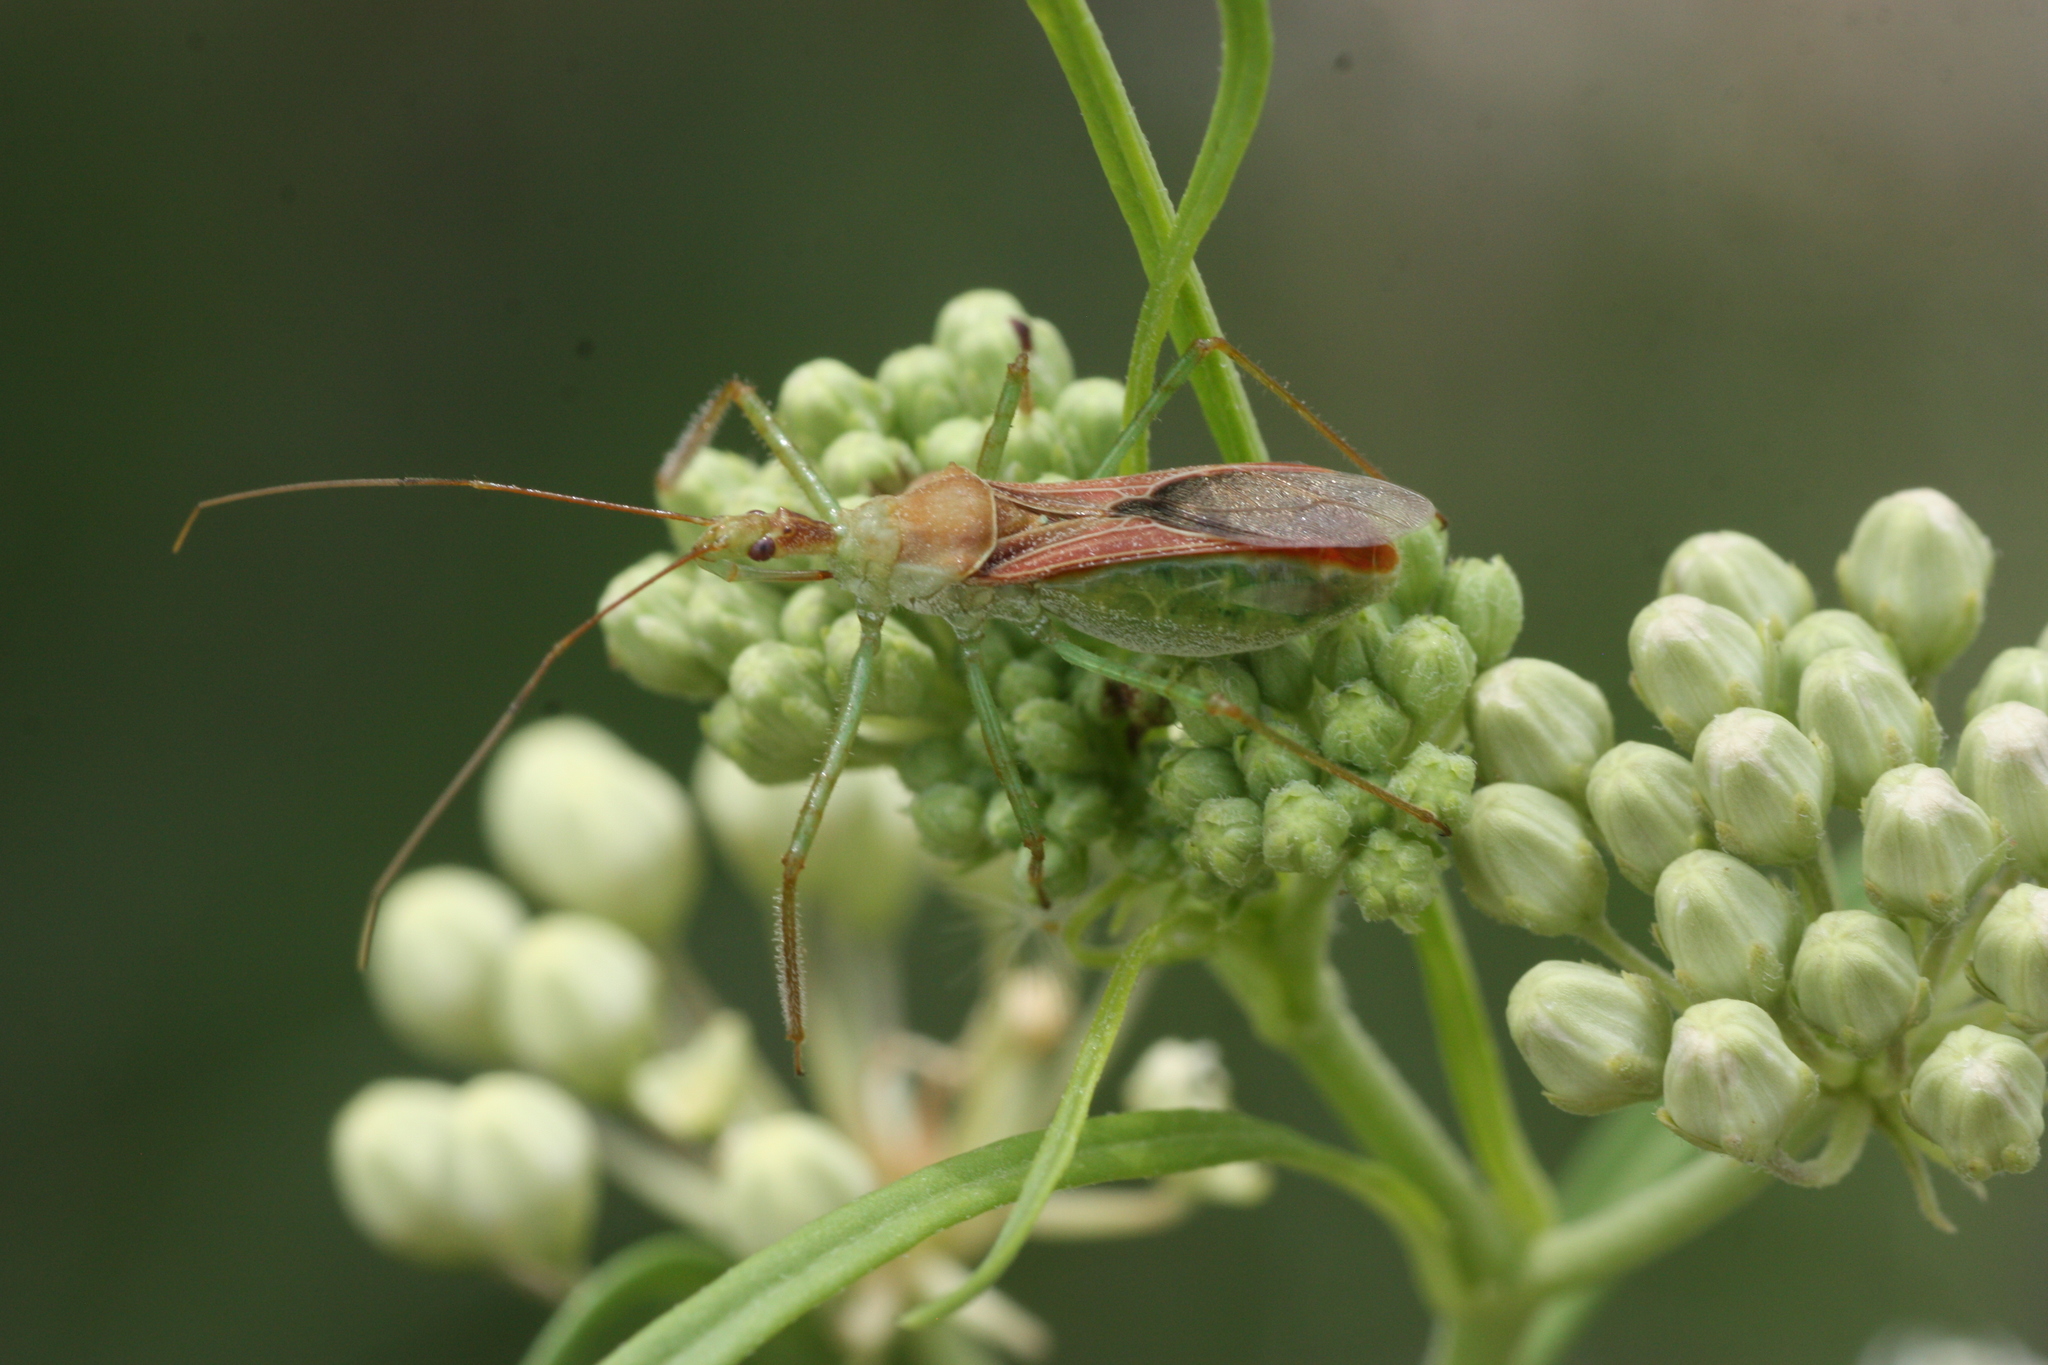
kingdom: Animalia
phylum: Arthropoda
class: Insecta
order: Hemiptera
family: Reduviidae
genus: Zelus
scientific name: Zelus renardii
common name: Assassin bug
